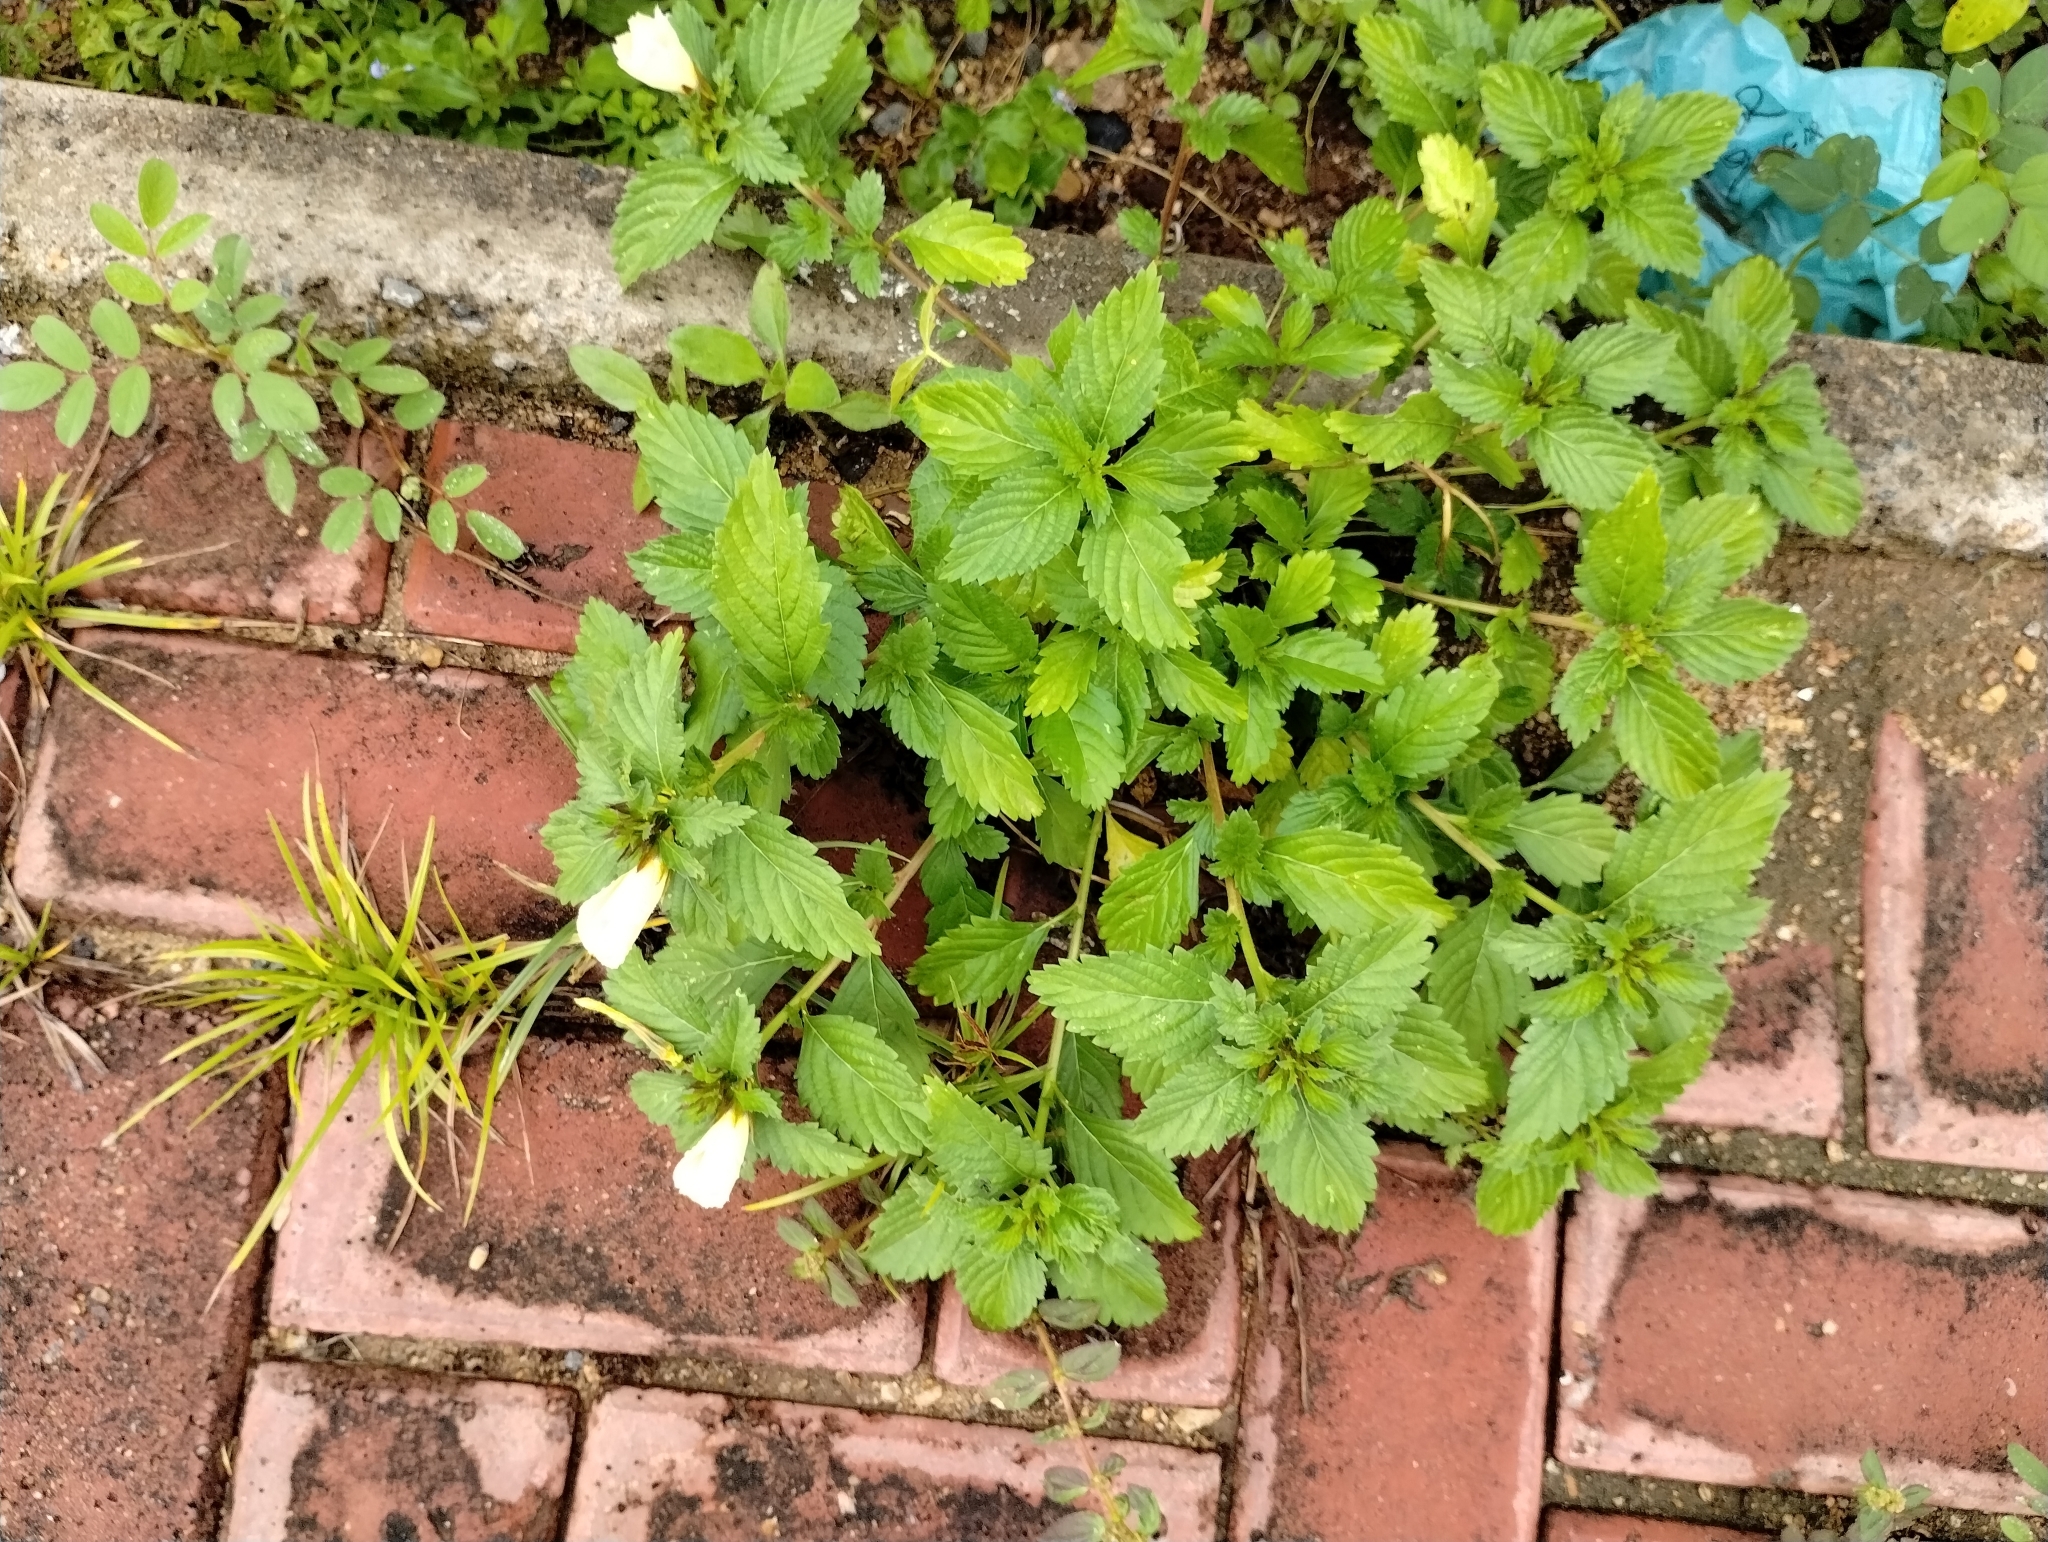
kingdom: Plantae
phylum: Tracheophyta
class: Magnoliopsida
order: Malpighiales
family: Turneraceae
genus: Turnera
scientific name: Turnera subulata
